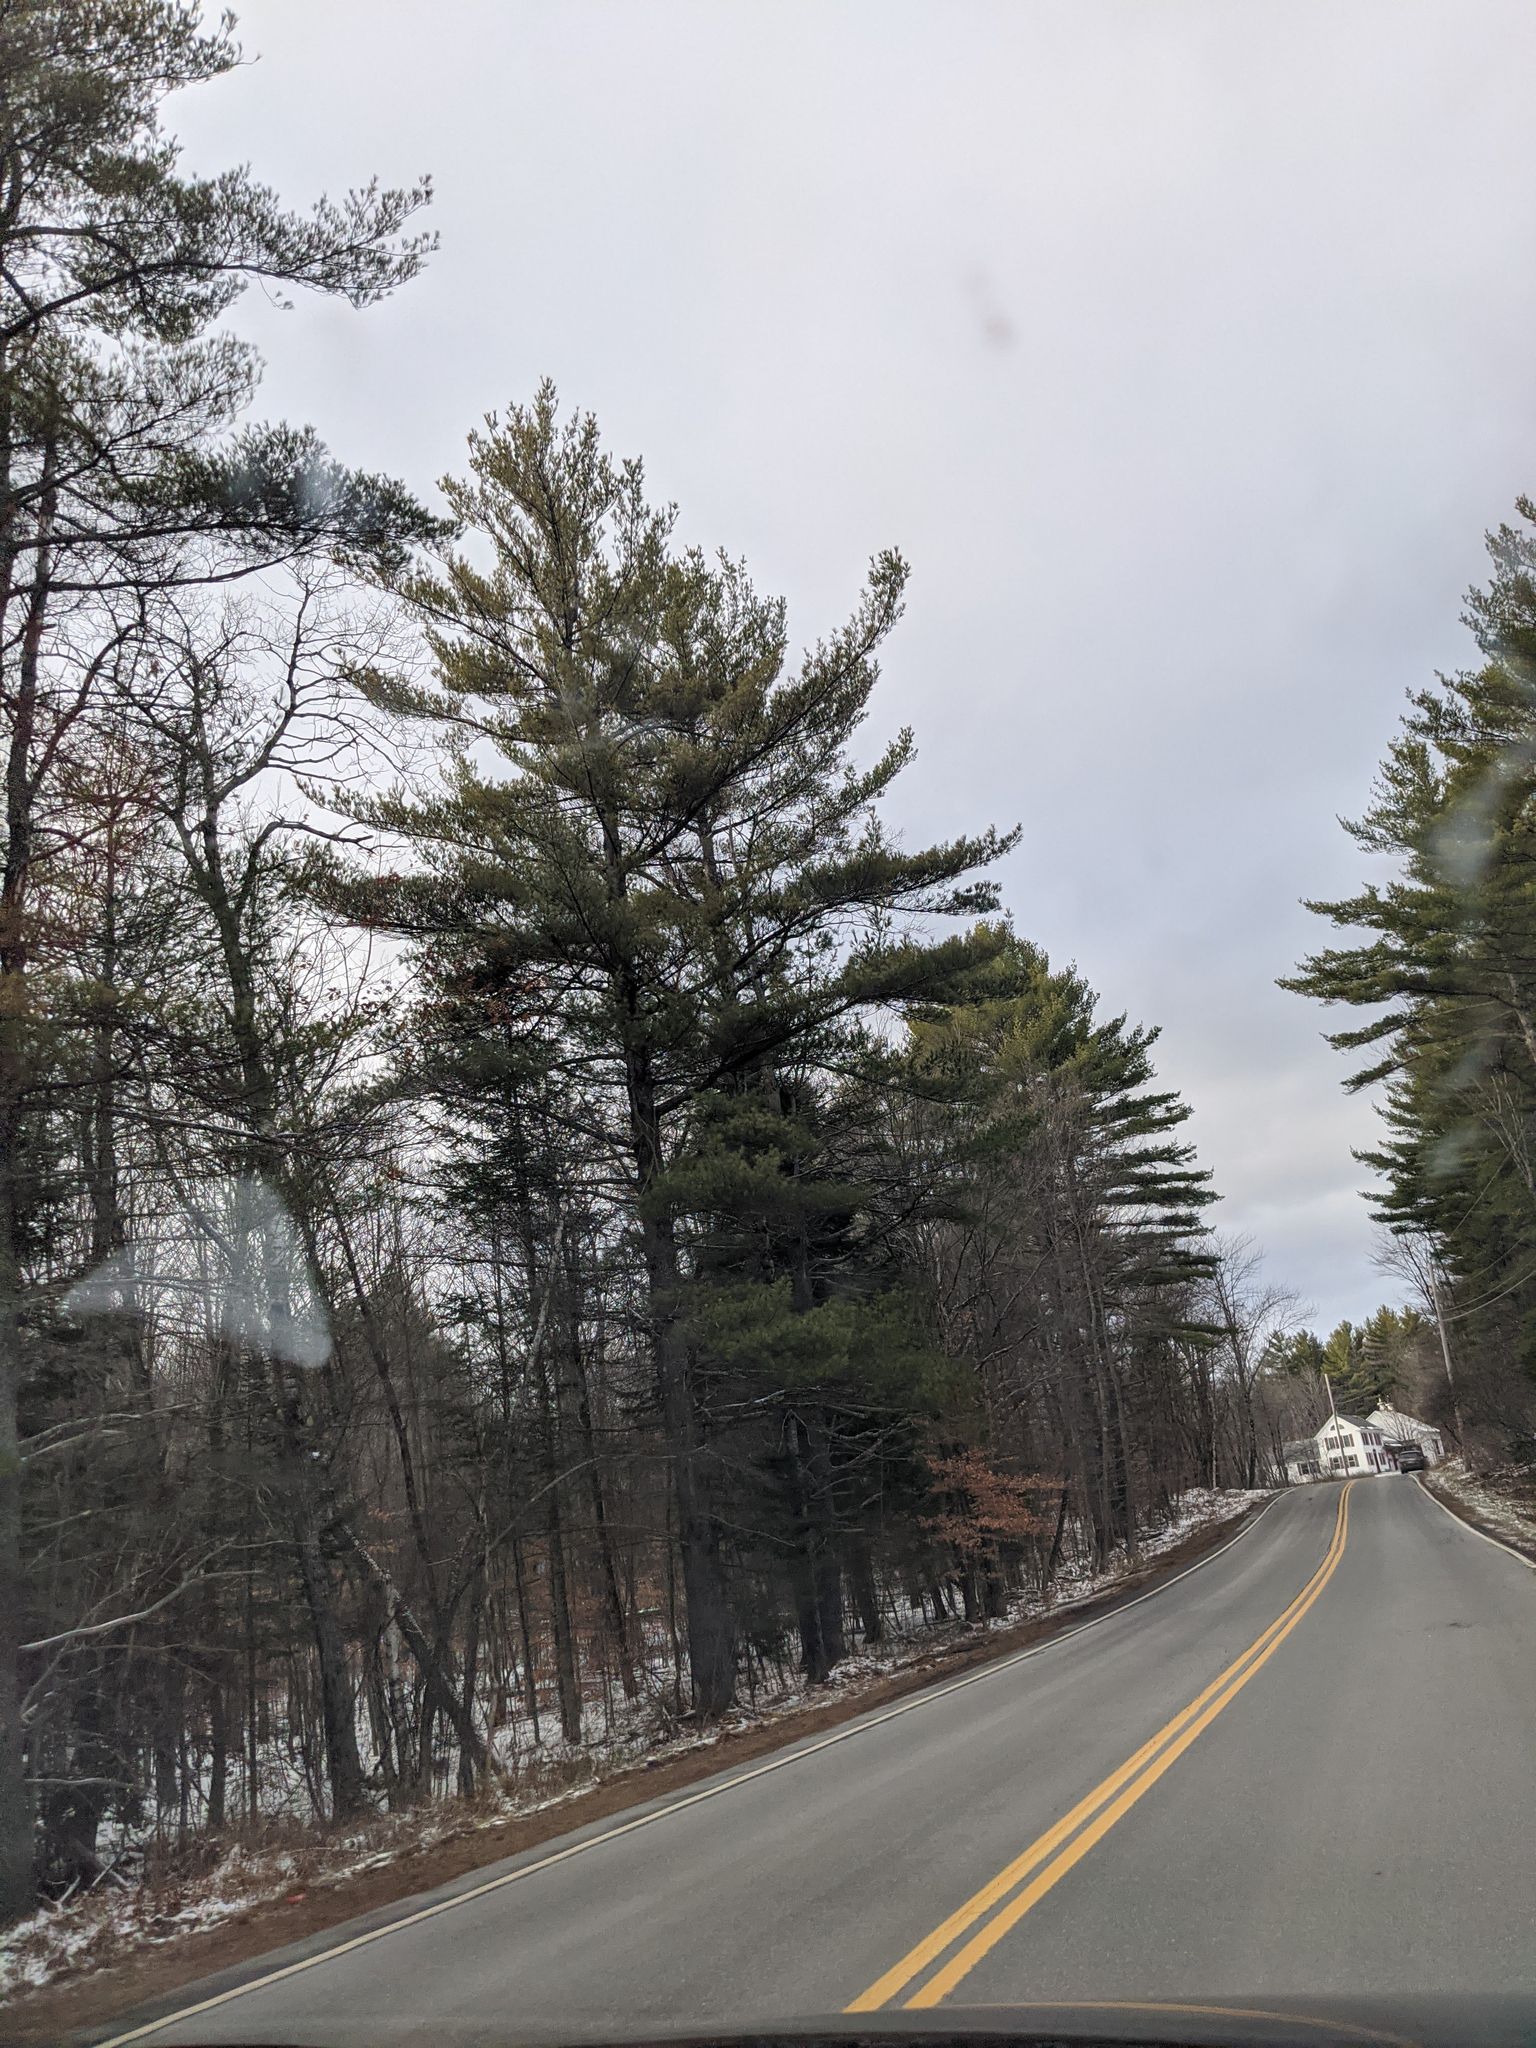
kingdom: Plantae
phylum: Tracheophyta
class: Pinopsida
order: Pinales
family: Pinaceae
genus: Pinus
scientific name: Pinus strobus
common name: Weymouth pine
